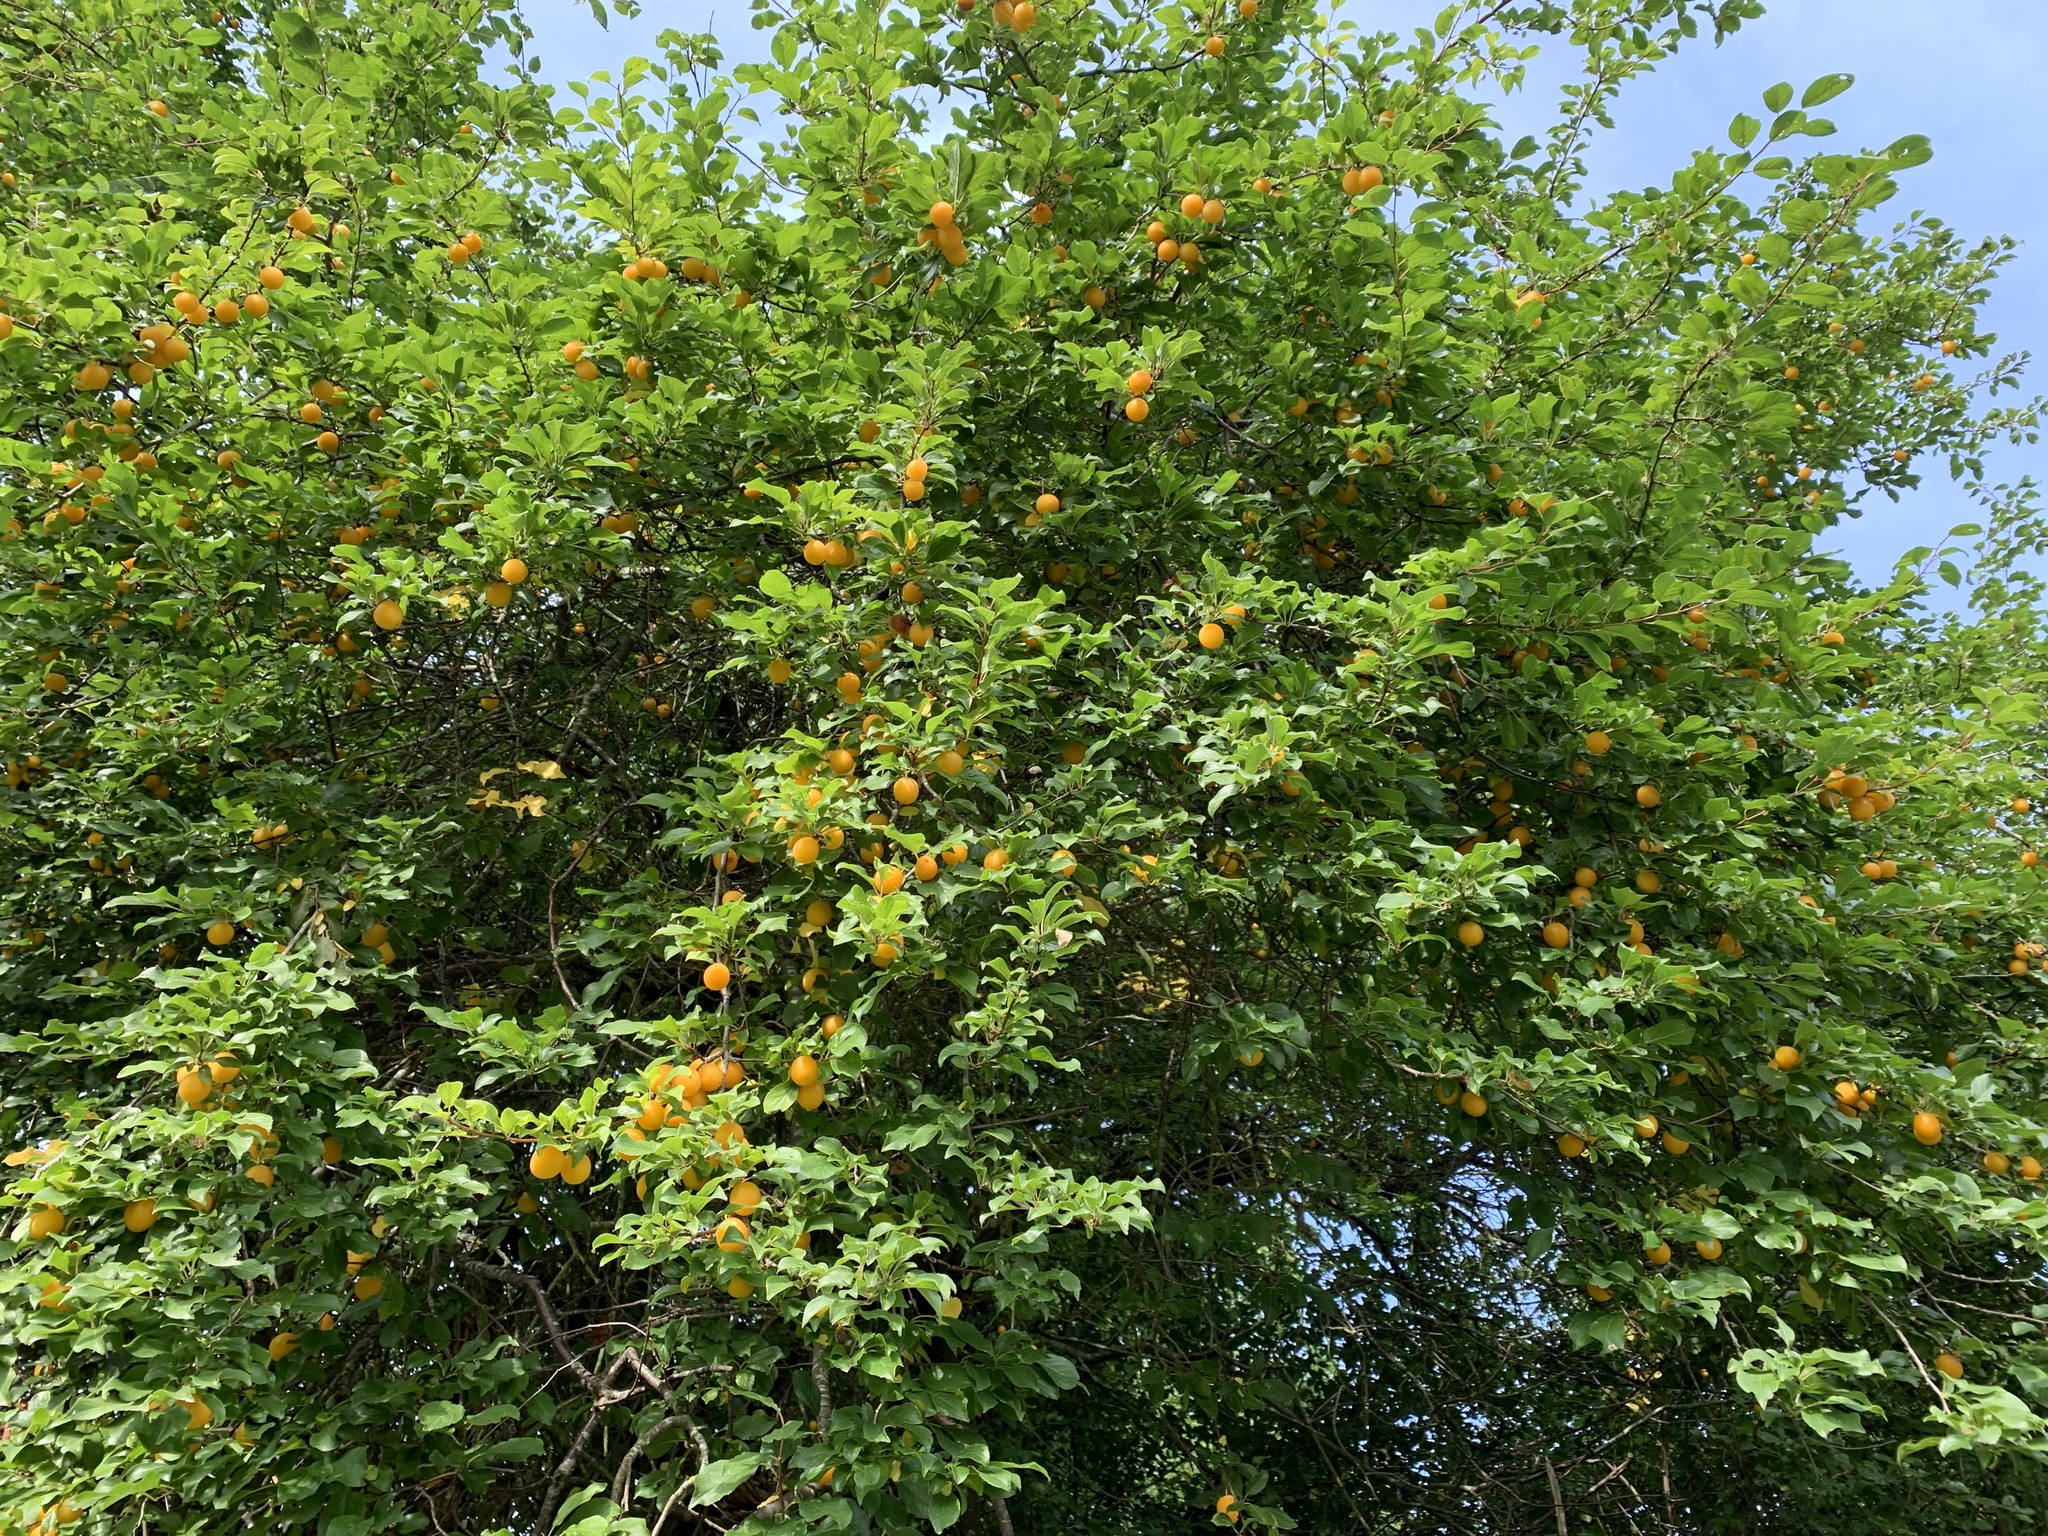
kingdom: Plantae
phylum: Tracheophyta
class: Magnoliopsida
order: Rosales
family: Rosaceae
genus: Prunus
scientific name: Prunus cerasifera
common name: Cherry plum
